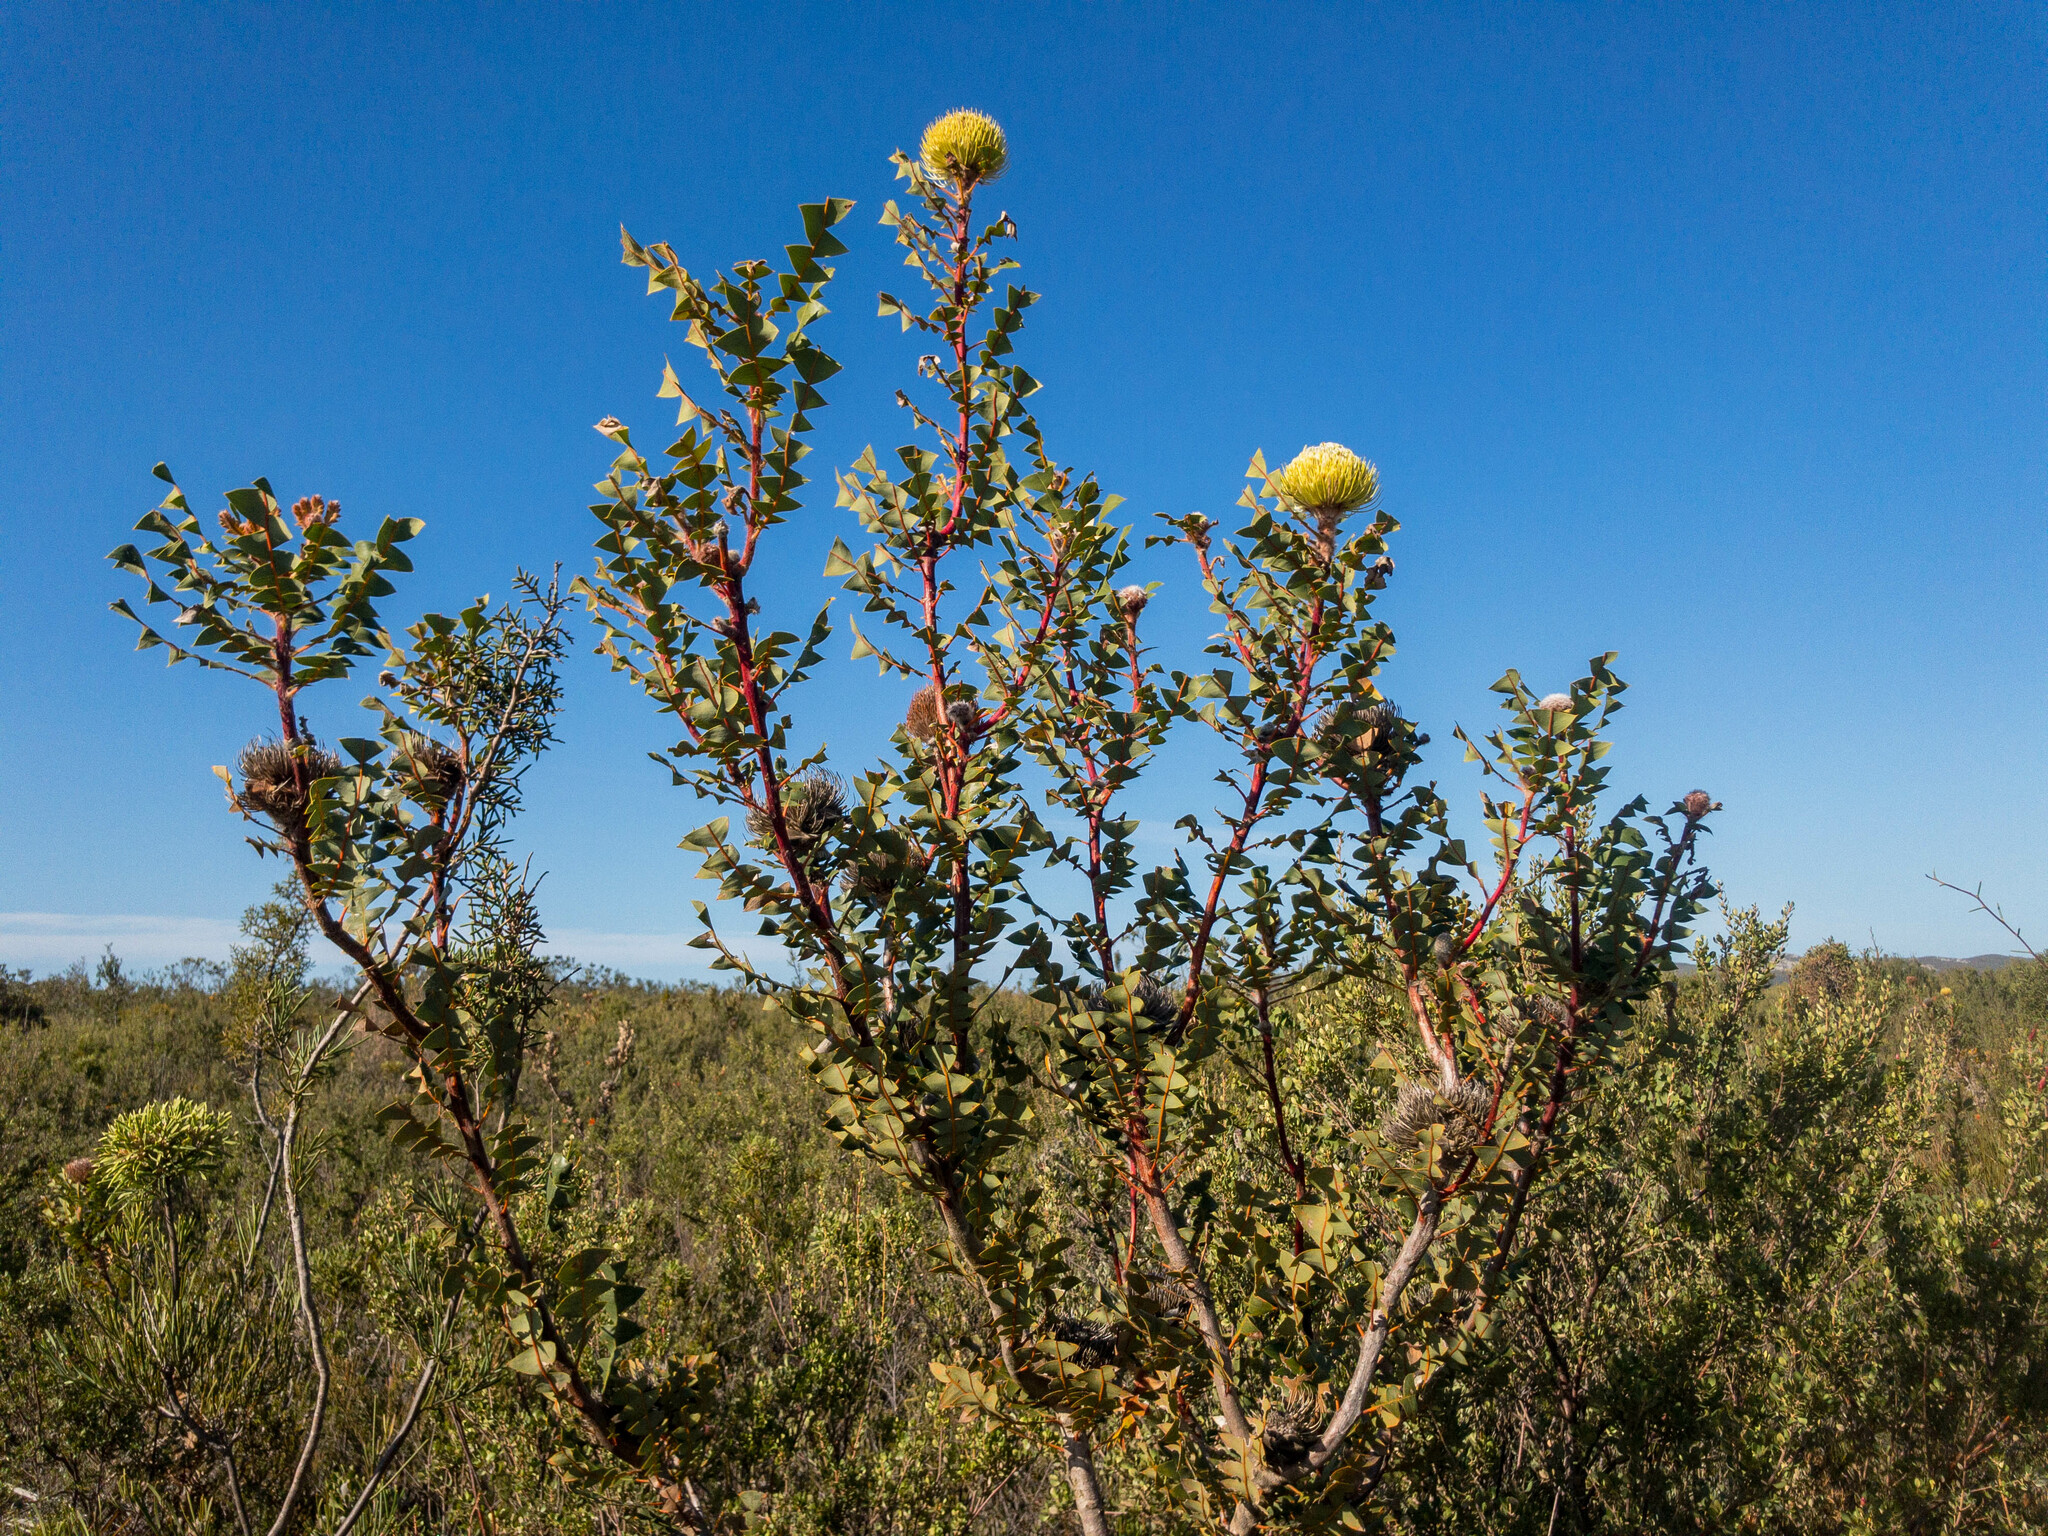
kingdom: Plantae
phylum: Tracheophyta
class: Magnoliopsida
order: Proteales
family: Proteaceae
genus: Banksia
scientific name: Banksia baxteri
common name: Bird's-nest banksia
